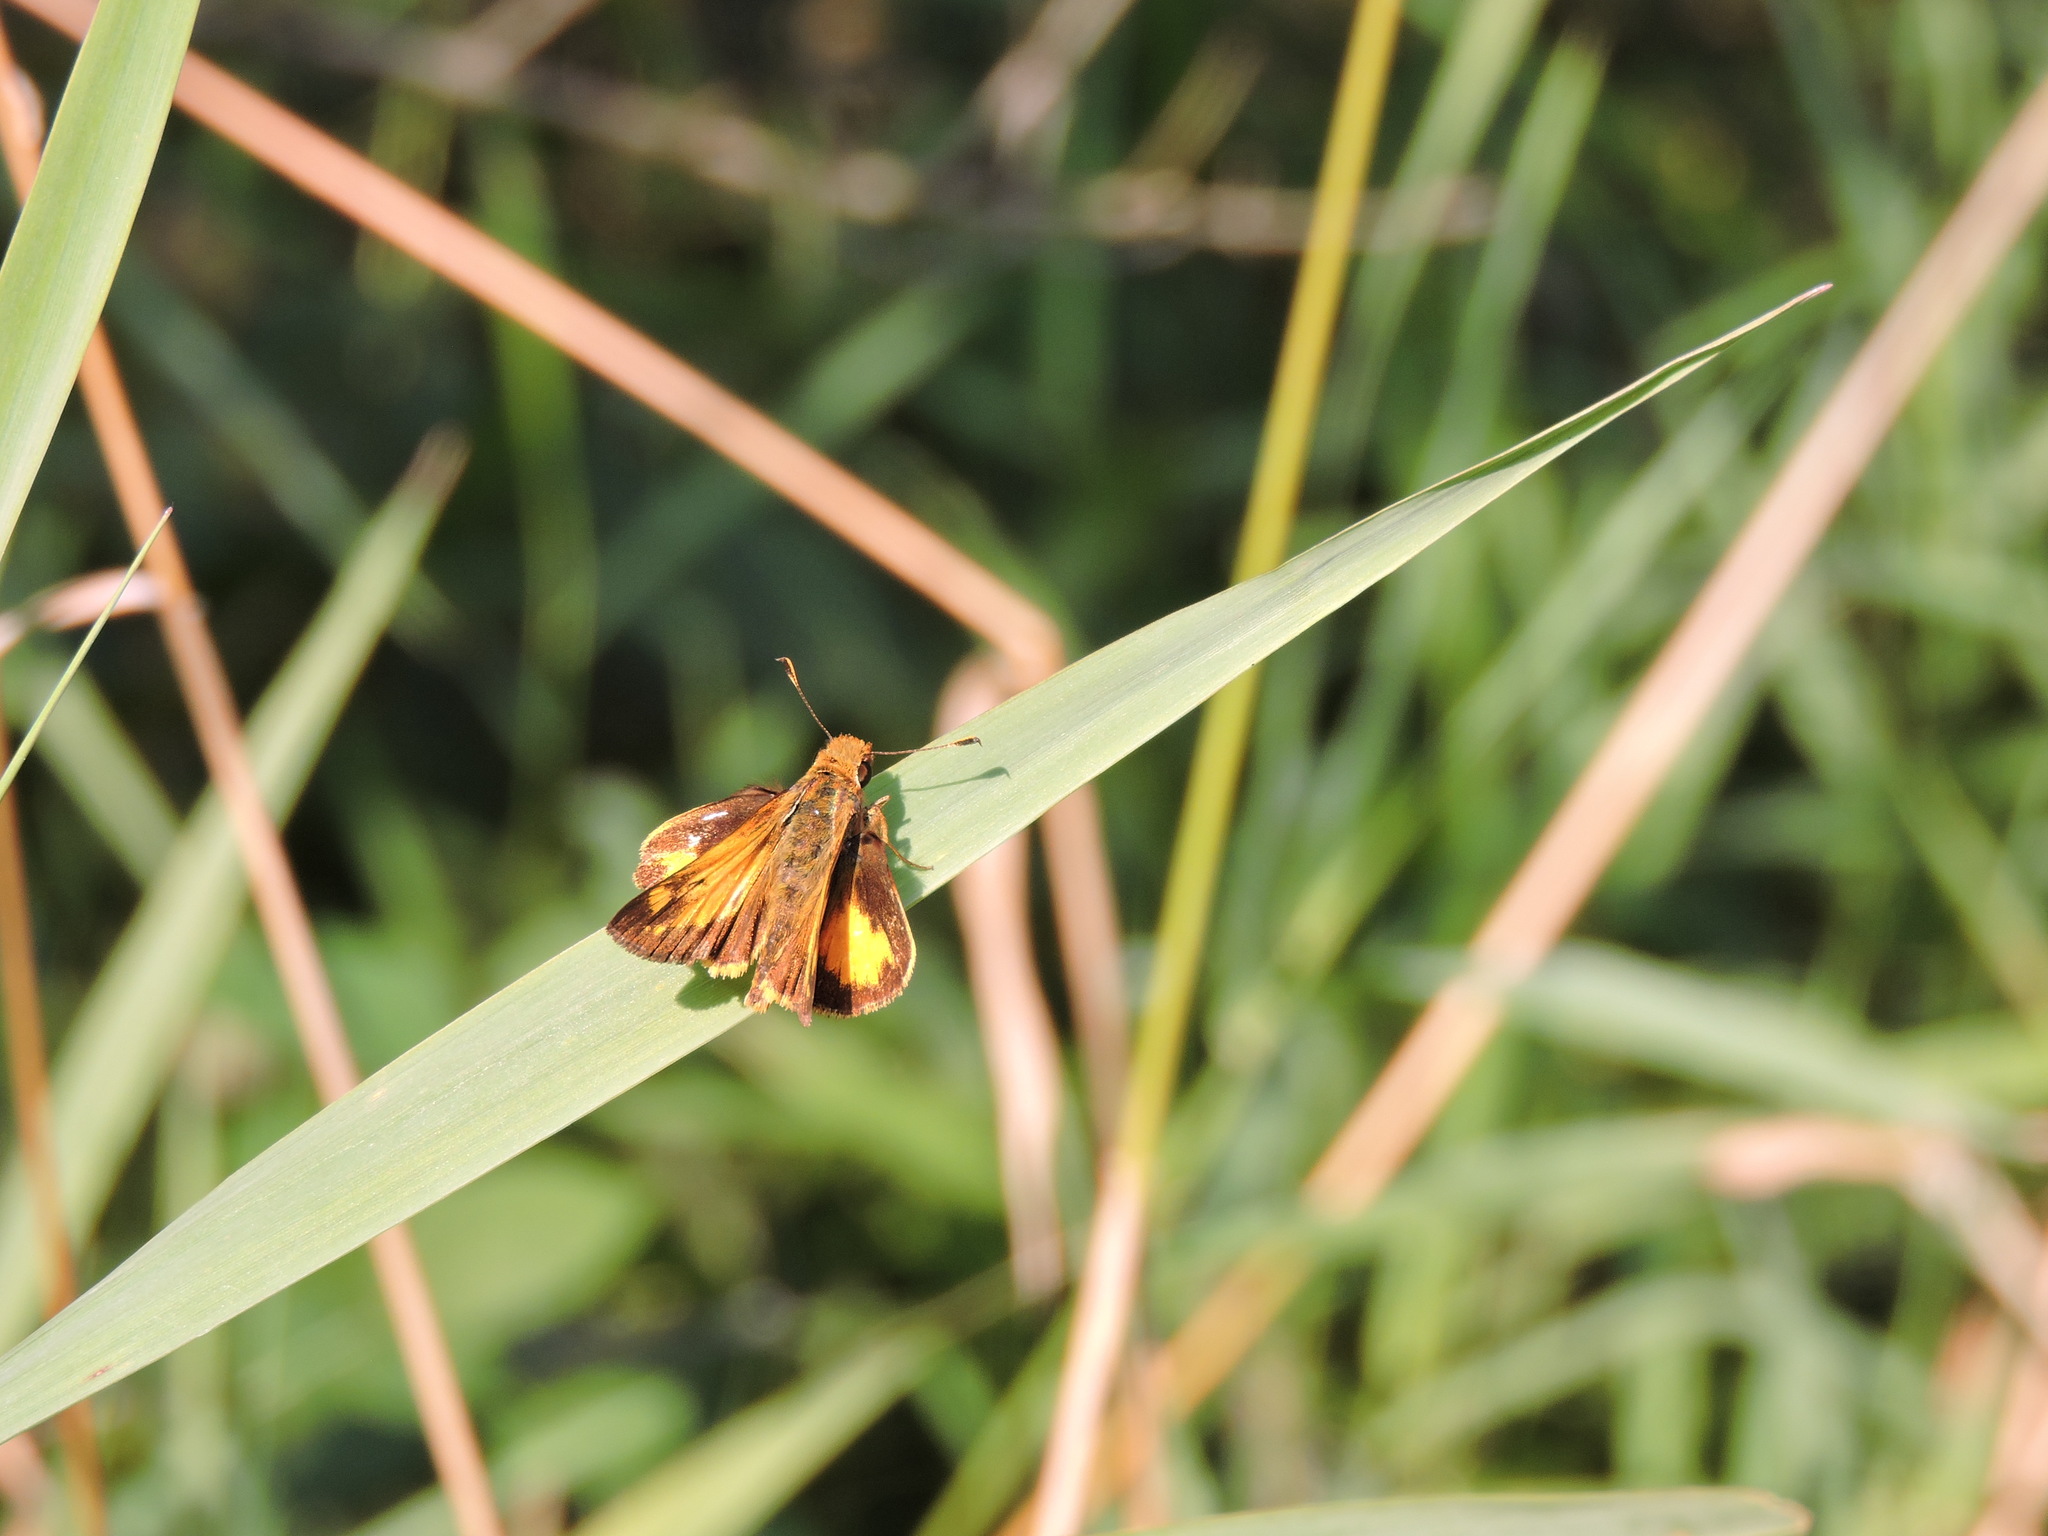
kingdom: Animalia
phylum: Arthropoda
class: Insecta
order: Lepidoptera
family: Hesperiidae
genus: Lon
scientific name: Lon zabulon
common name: Zabulon skipper
